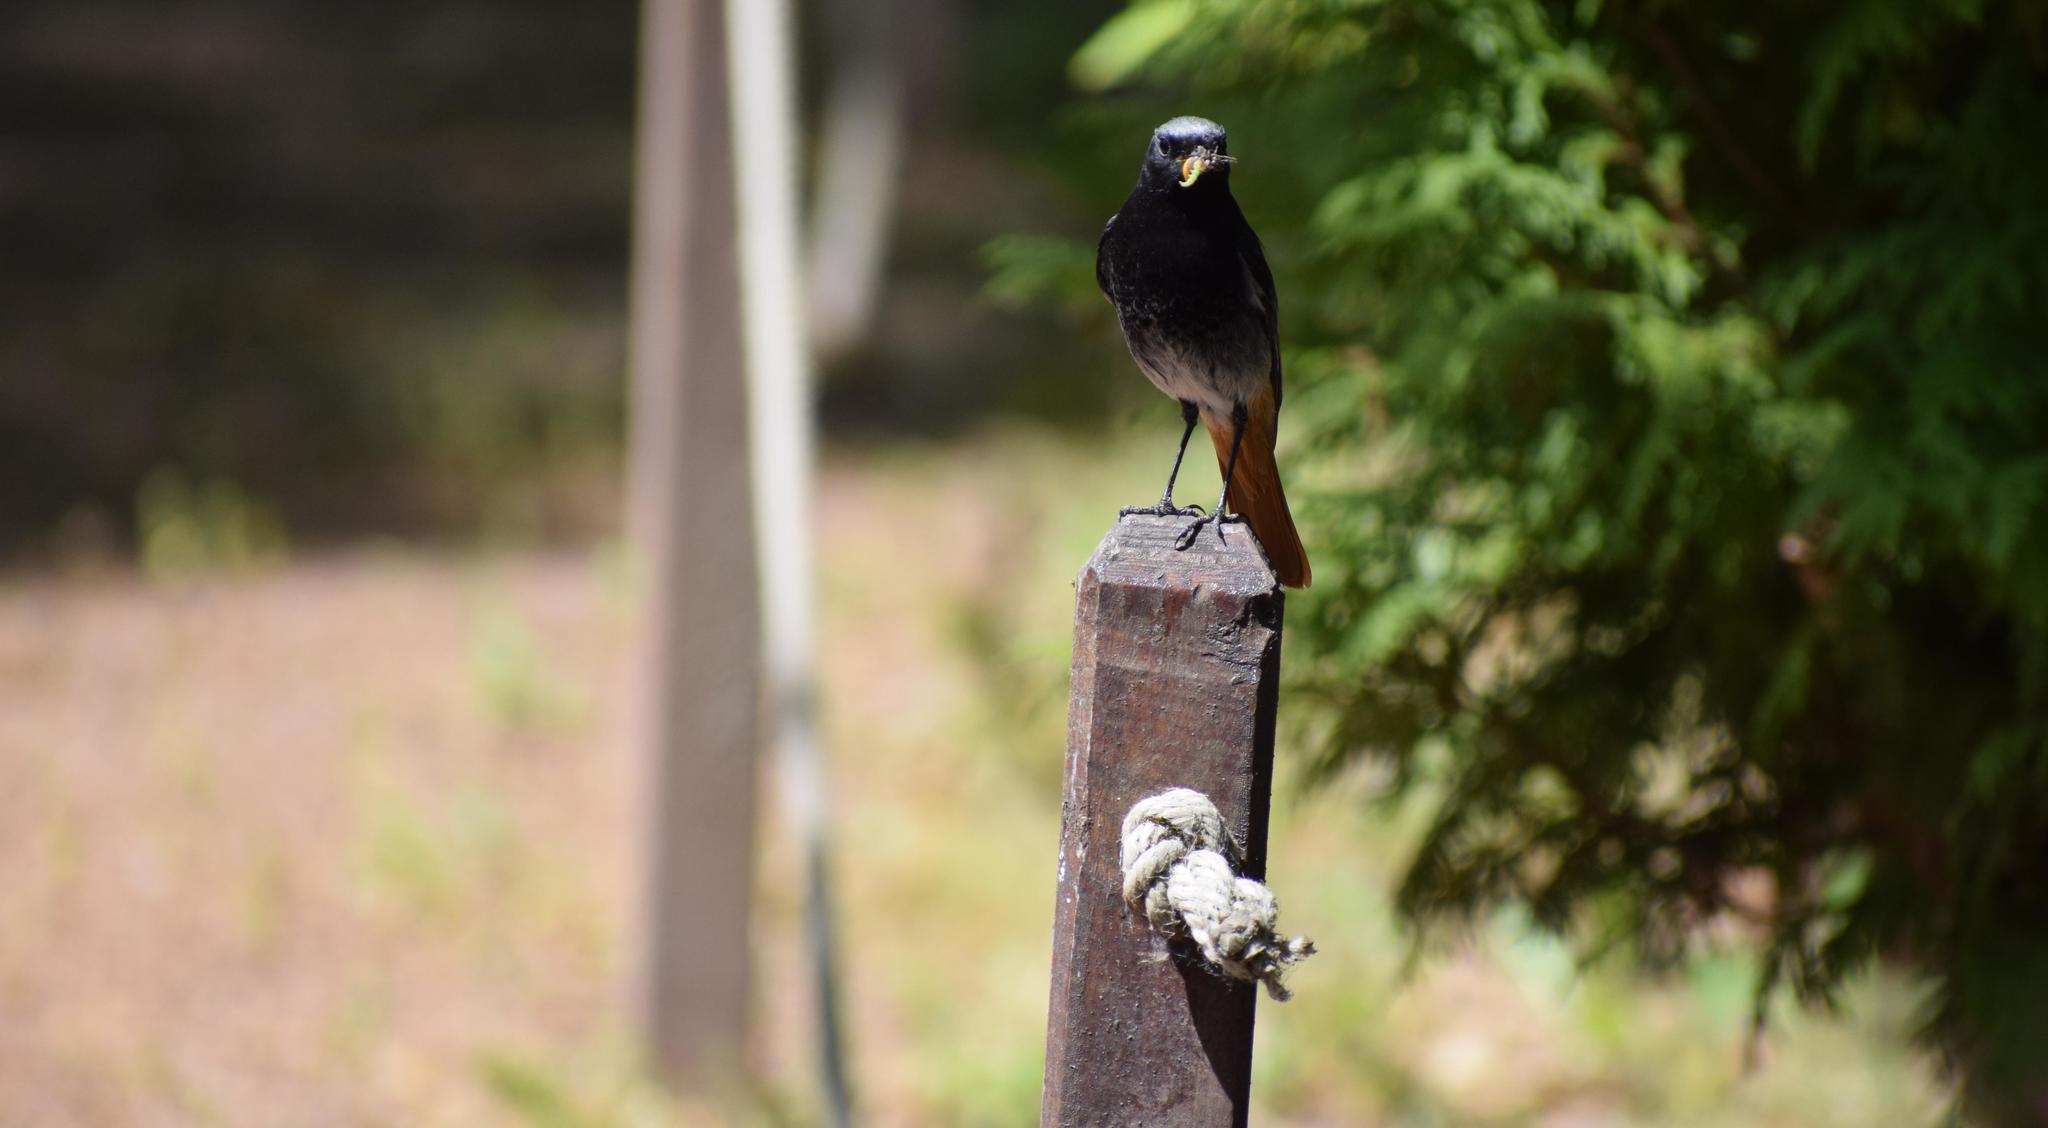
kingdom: Animalia
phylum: Chordata
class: Aves
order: Passeriformes
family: Muscicapidae
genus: Phoenicurus
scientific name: Phoenicurus phoenicurus
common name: Common redstart
